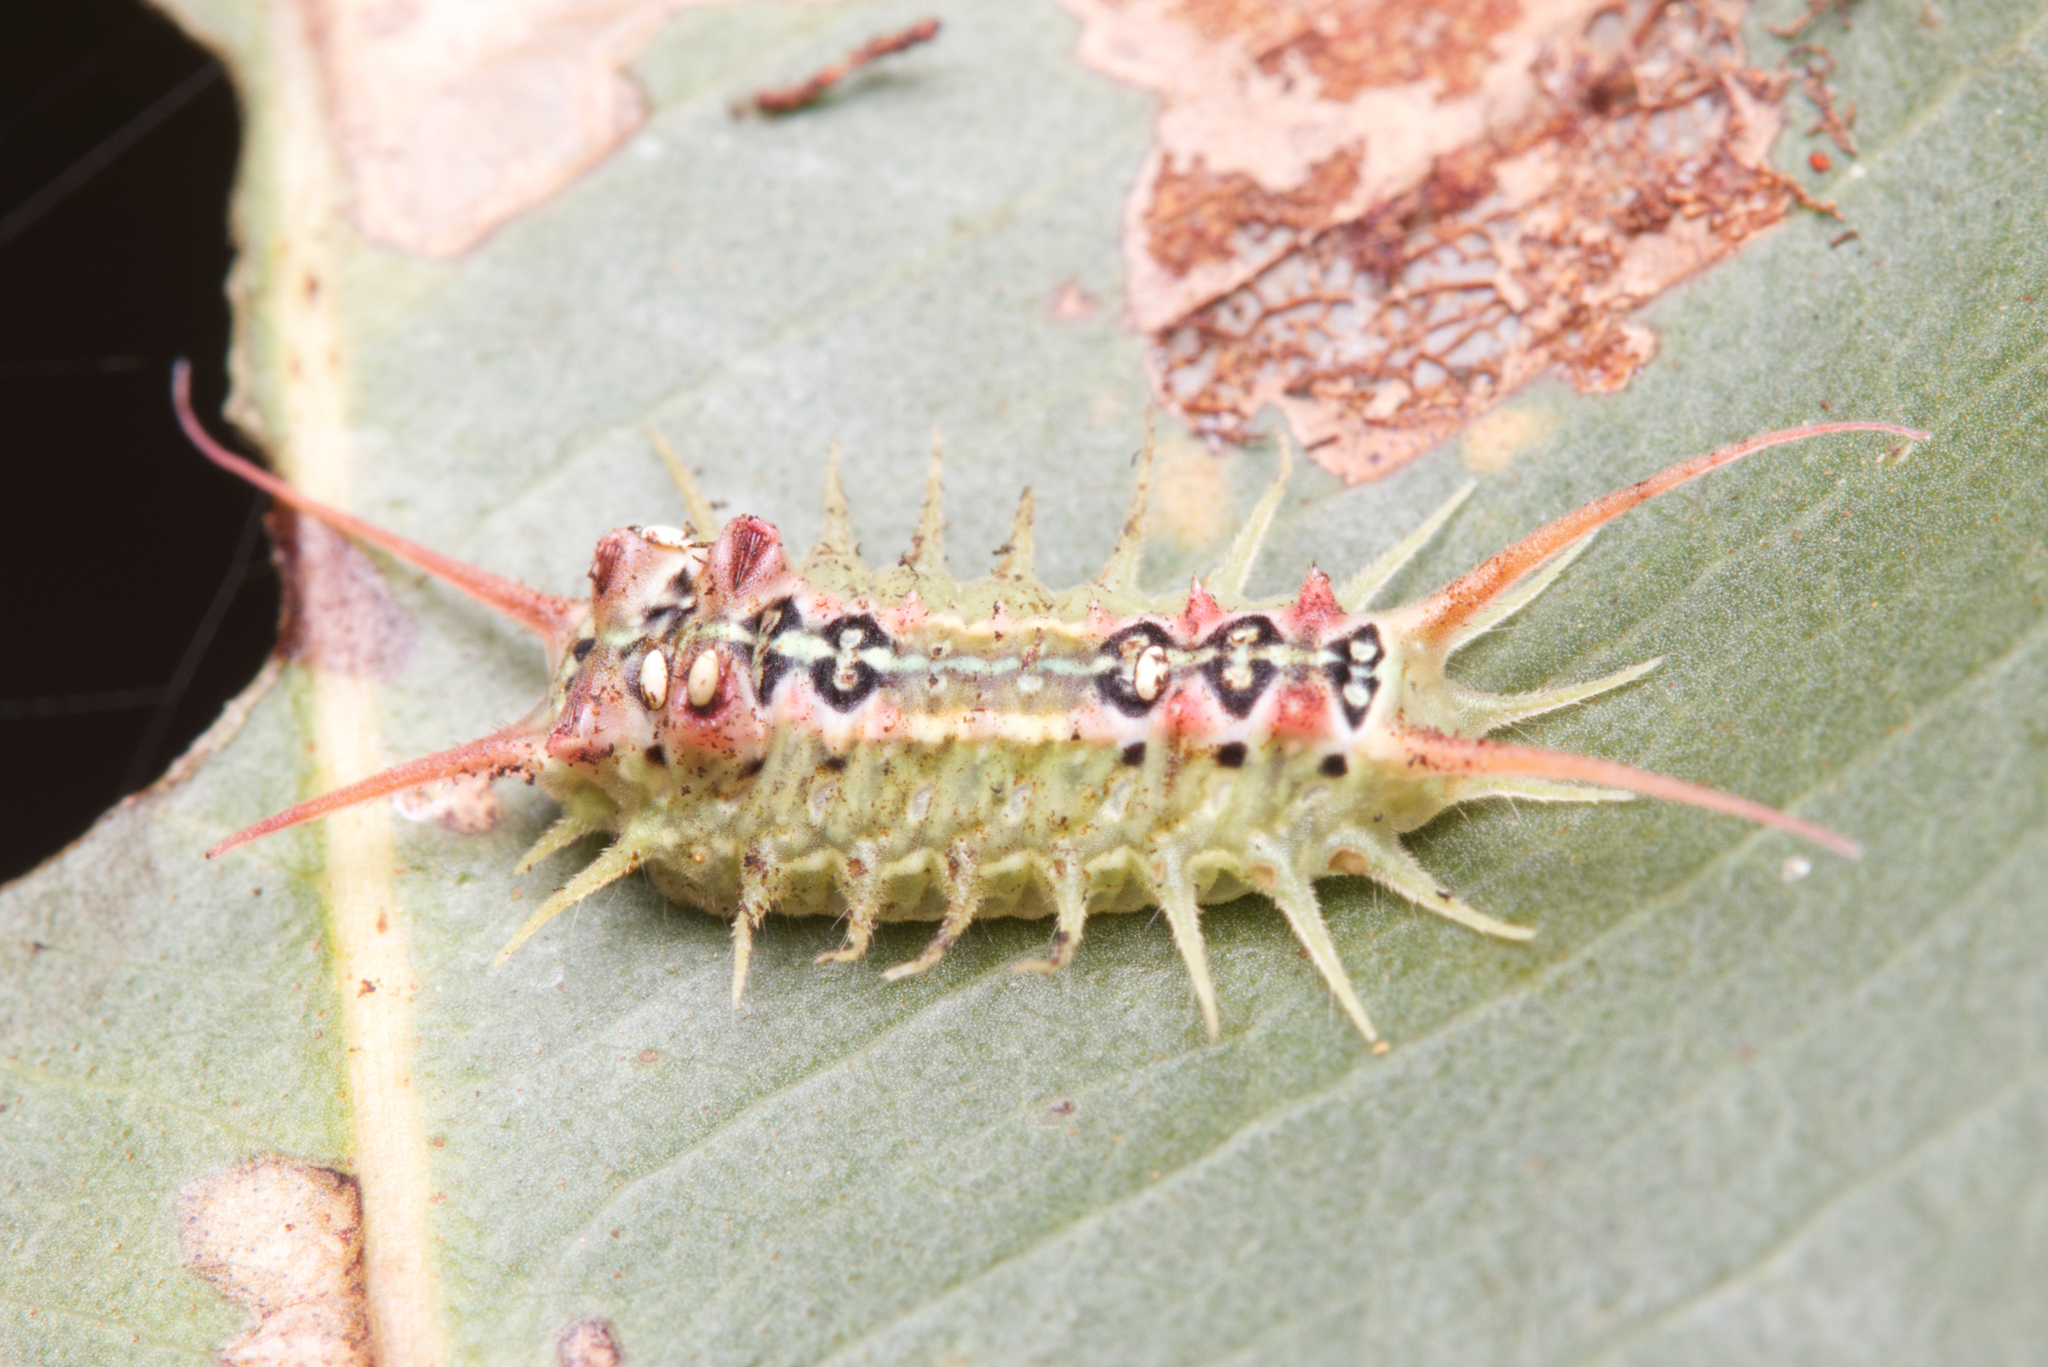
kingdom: Animalia
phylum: Arthropoda
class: Insecta
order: Lepidoptera
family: Limacodidae
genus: Doratifera
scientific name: Doratifera quadriguttata
